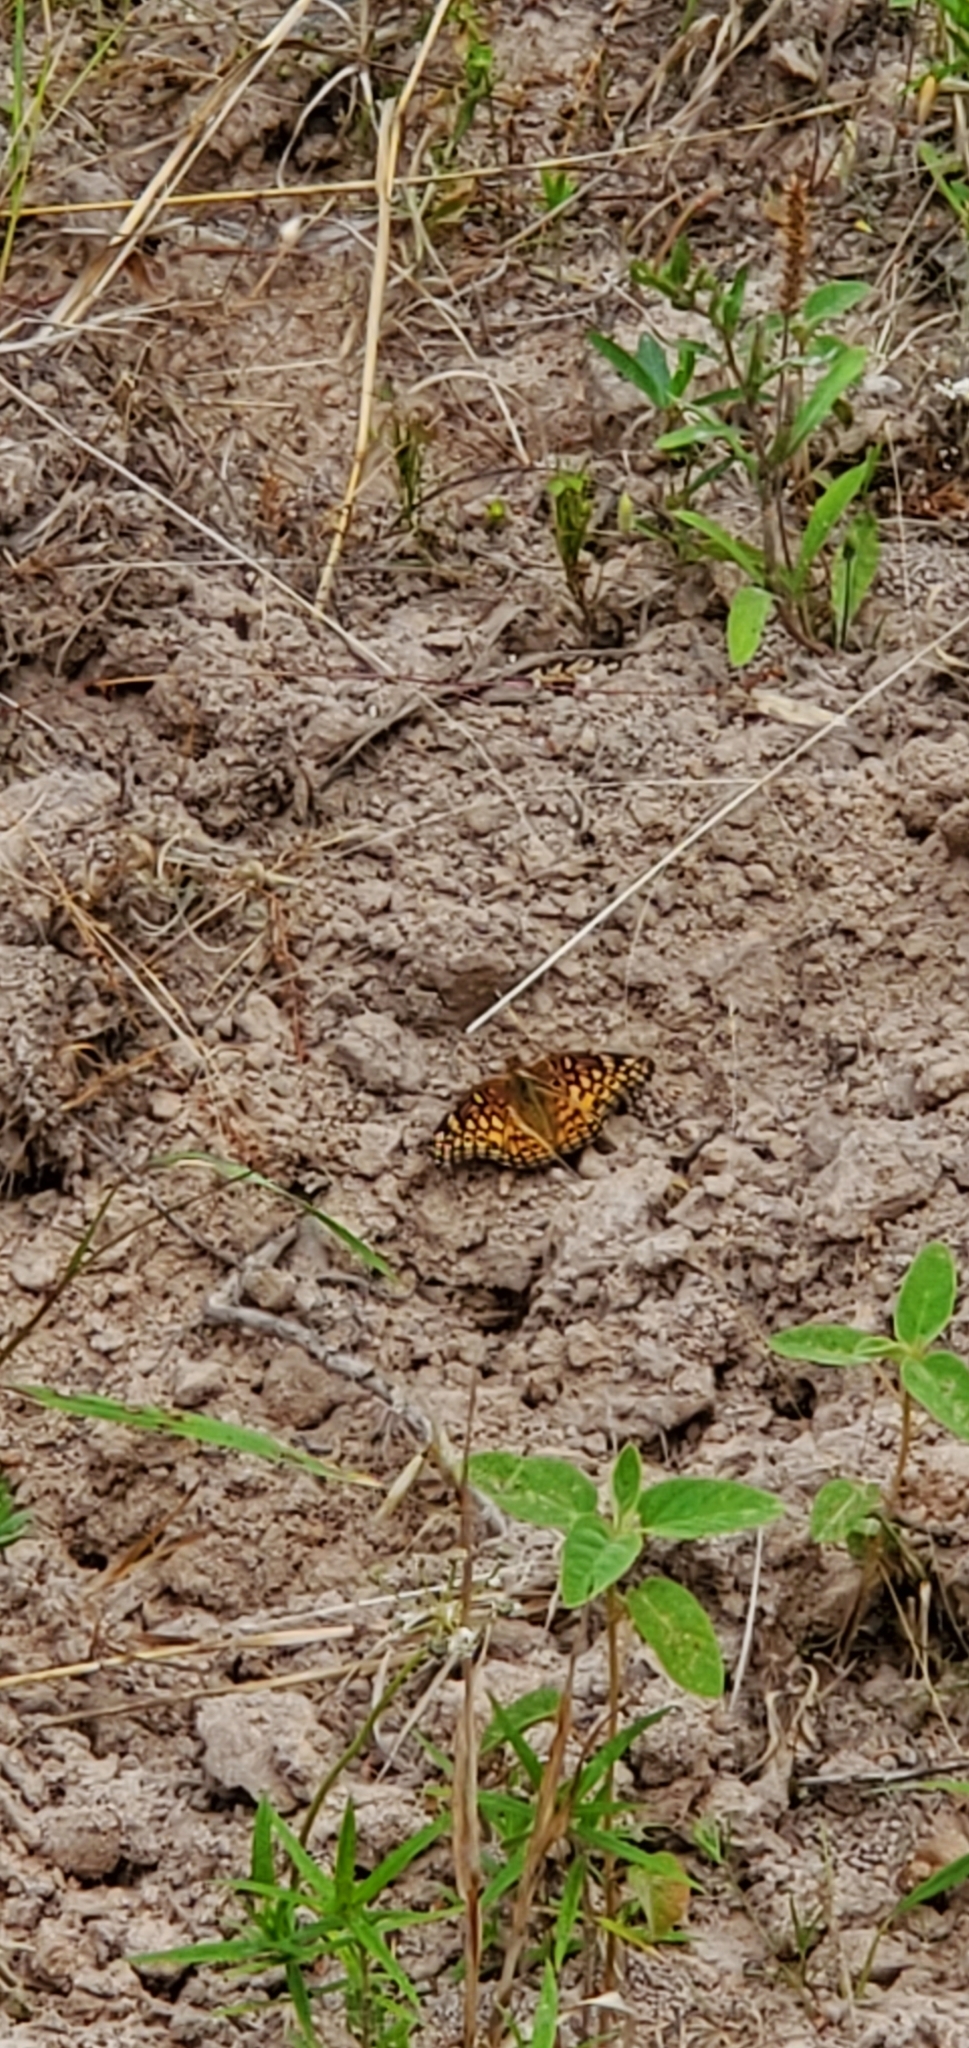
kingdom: Animalia
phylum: Arthropoda
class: Insecta
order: Lepidoptera
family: Nymphalidae
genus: Euptoieta
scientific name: Euptoieta claudia
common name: Variegated fritillary
